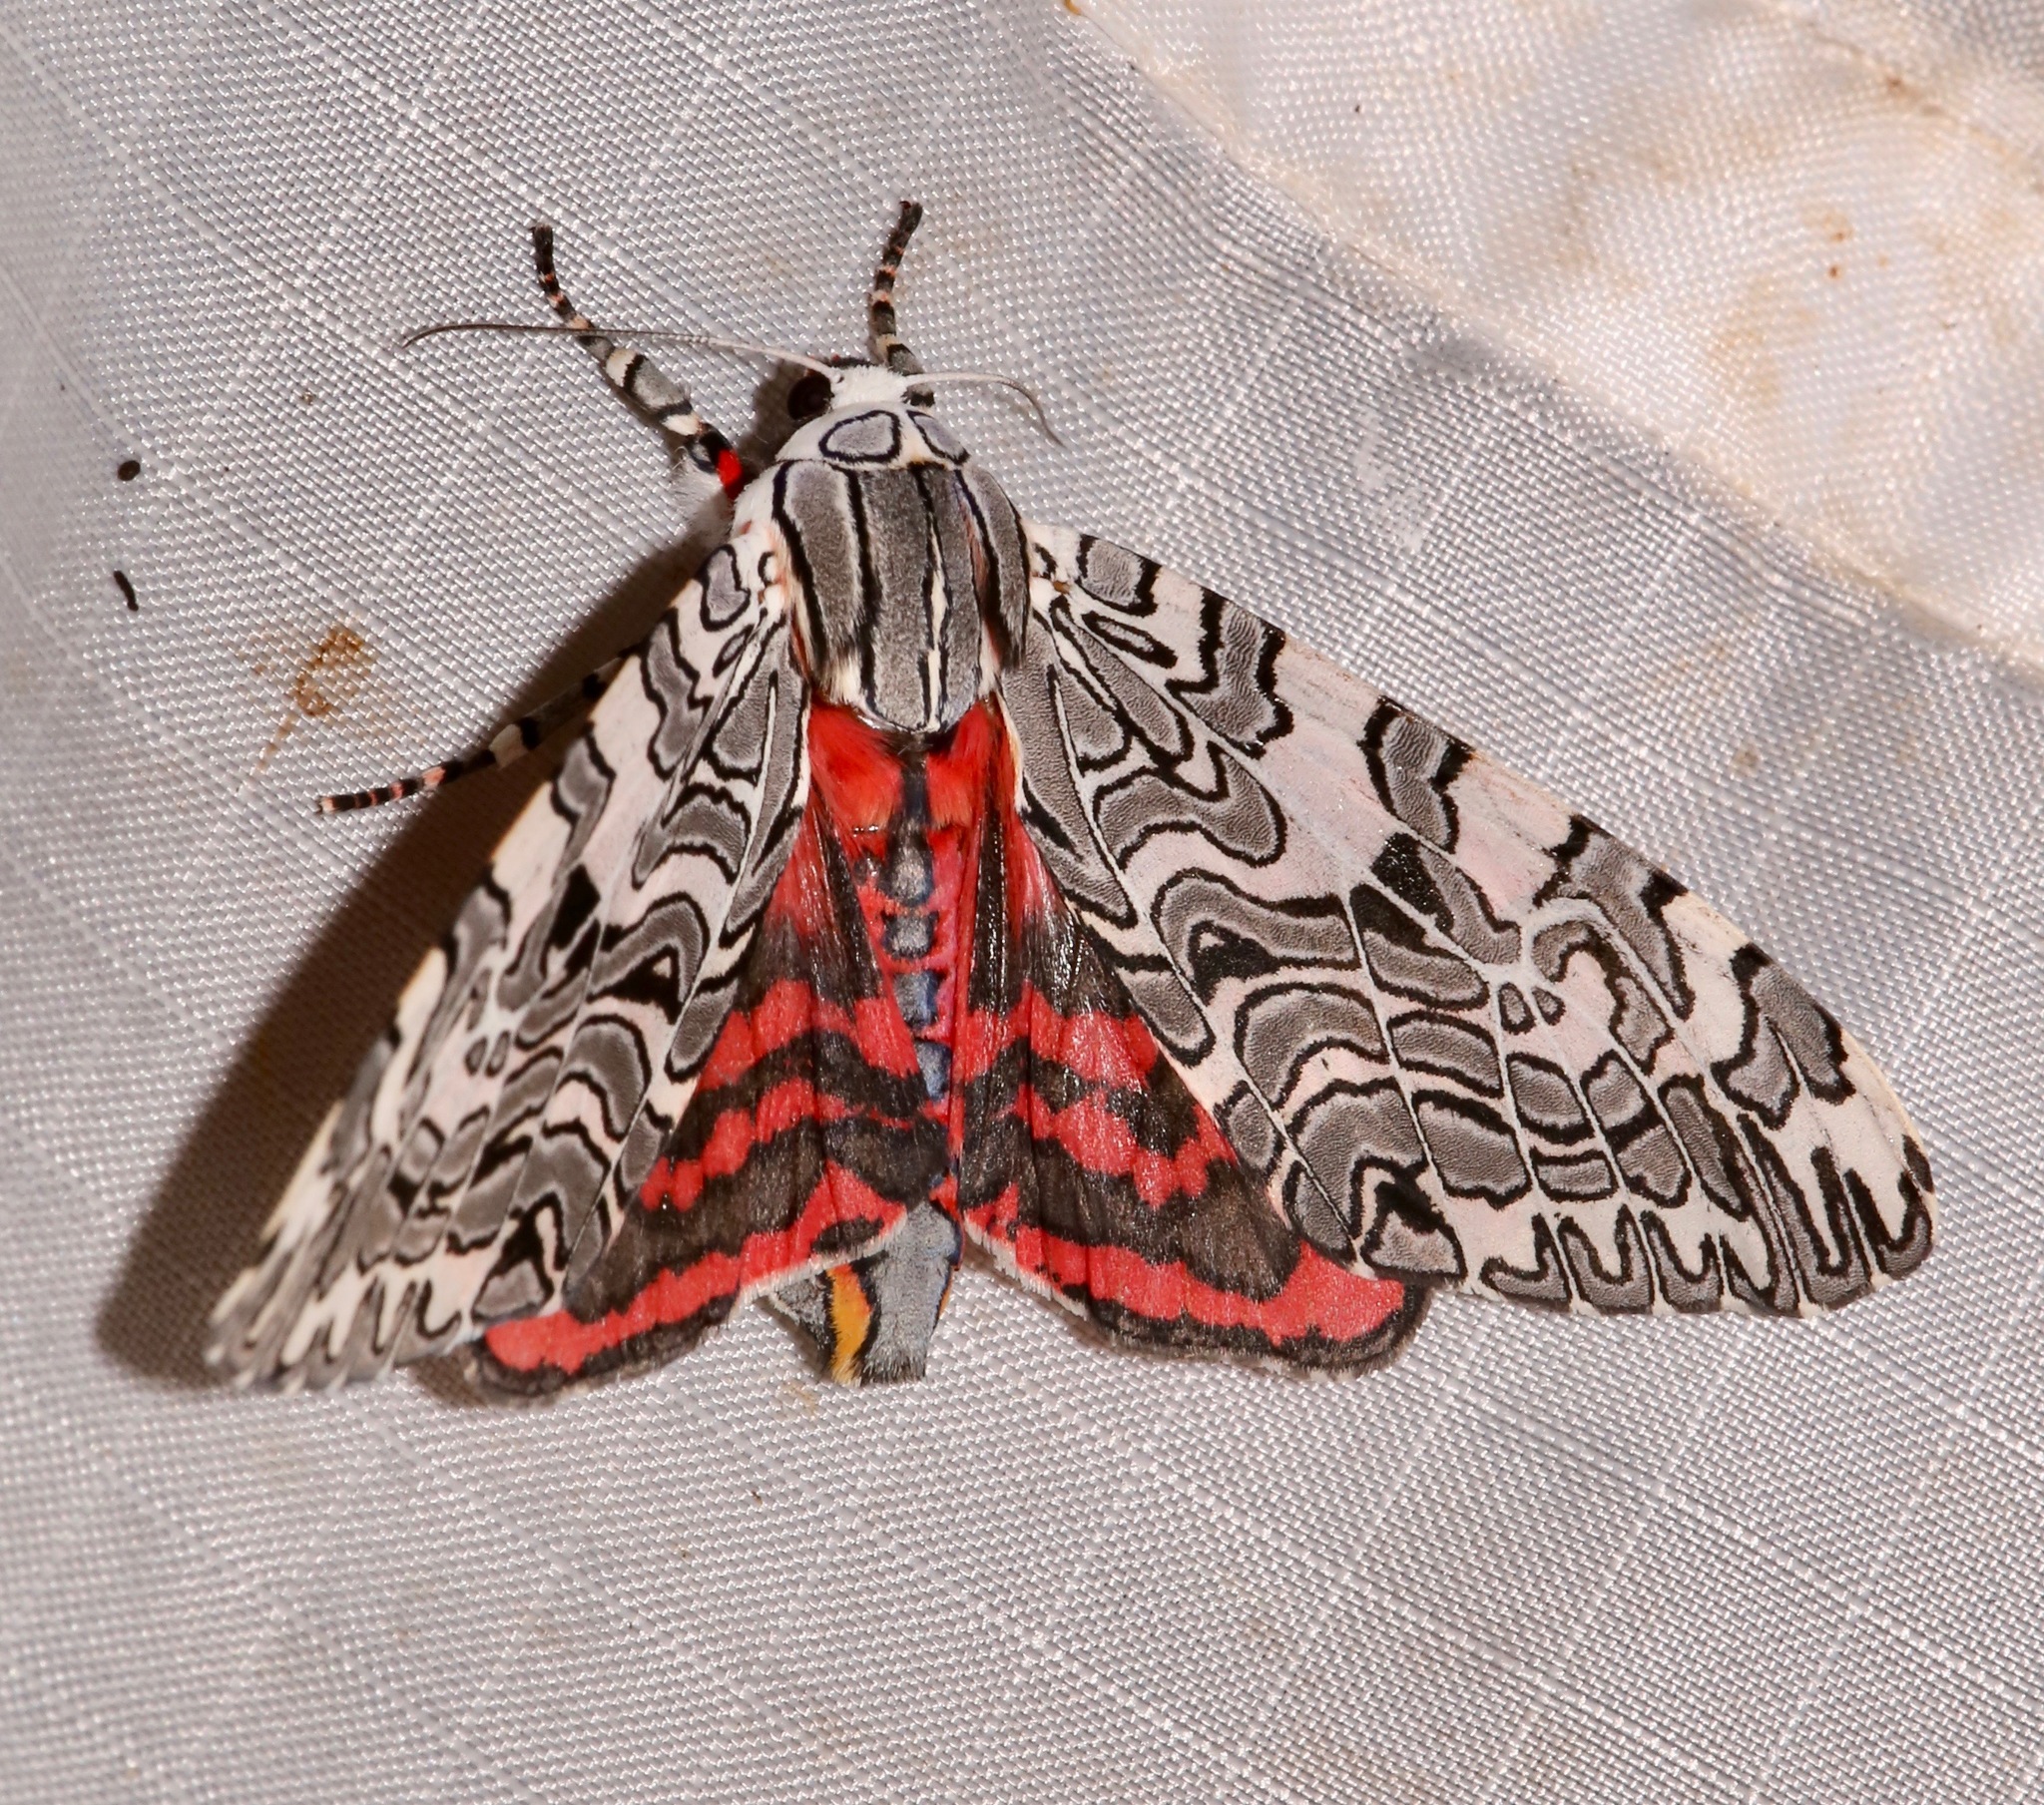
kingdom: Animalia
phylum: Arthropoda
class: Insecta
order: Lepidoptera
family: Erebidae
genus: Arachnis
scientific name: Arachnis picta
